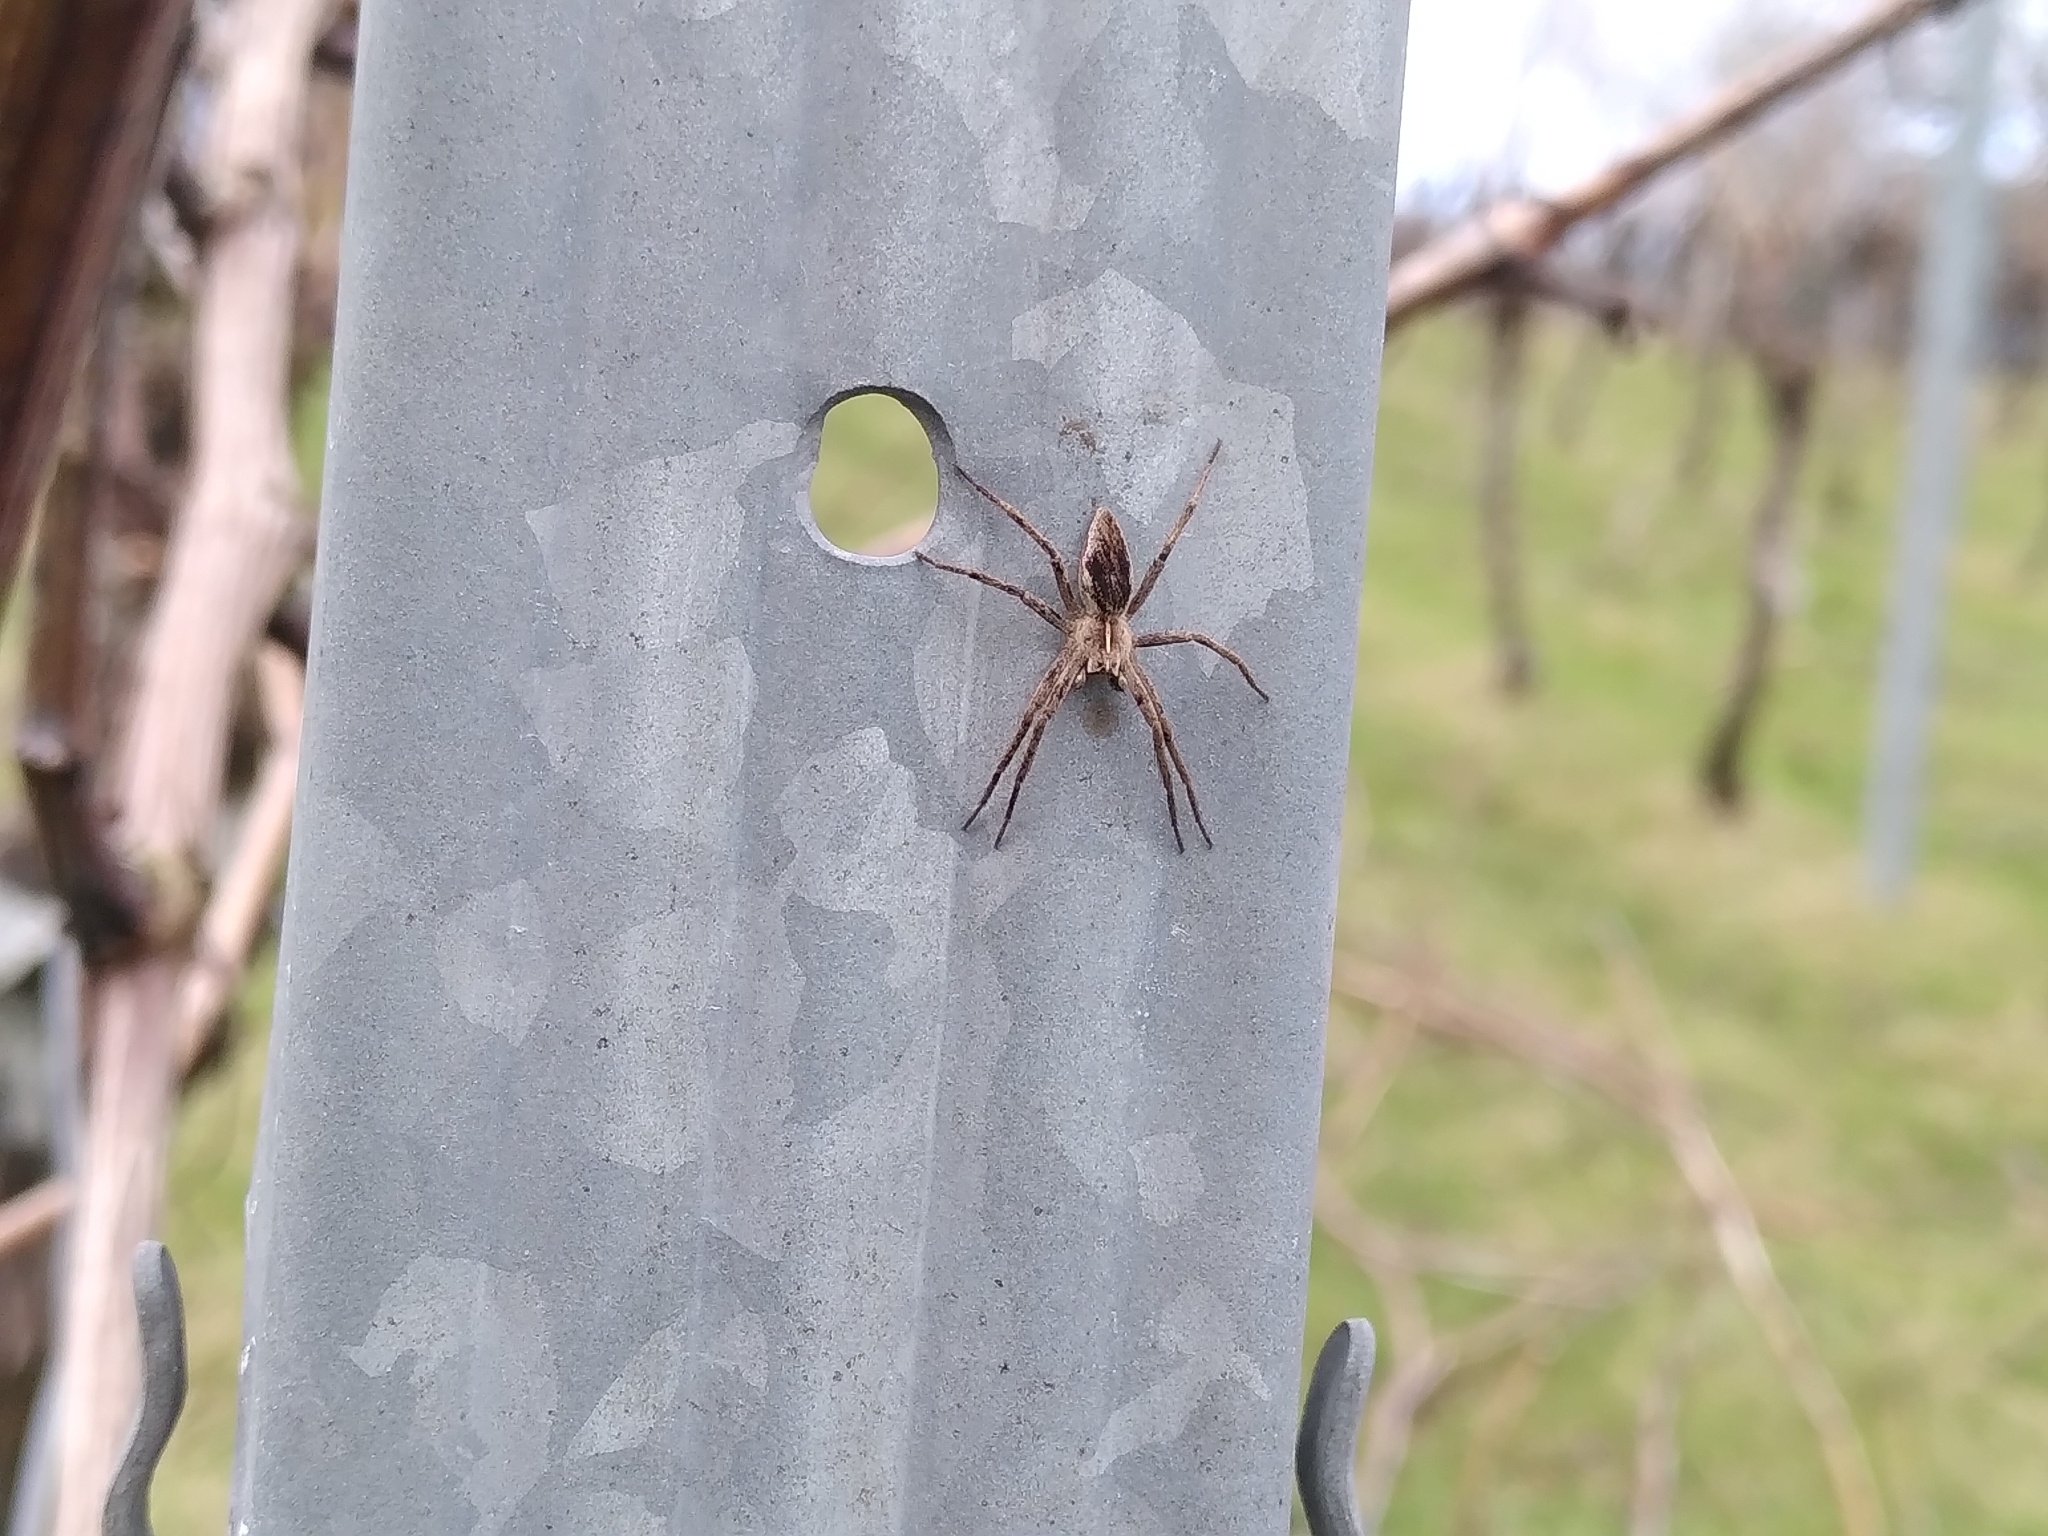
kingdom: Animalia
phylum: Arthropoda
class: Arachnida
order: Araneae
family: Pisauridae
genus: Pisaura
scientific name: Pisaura mirabilis
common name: Tent spider
